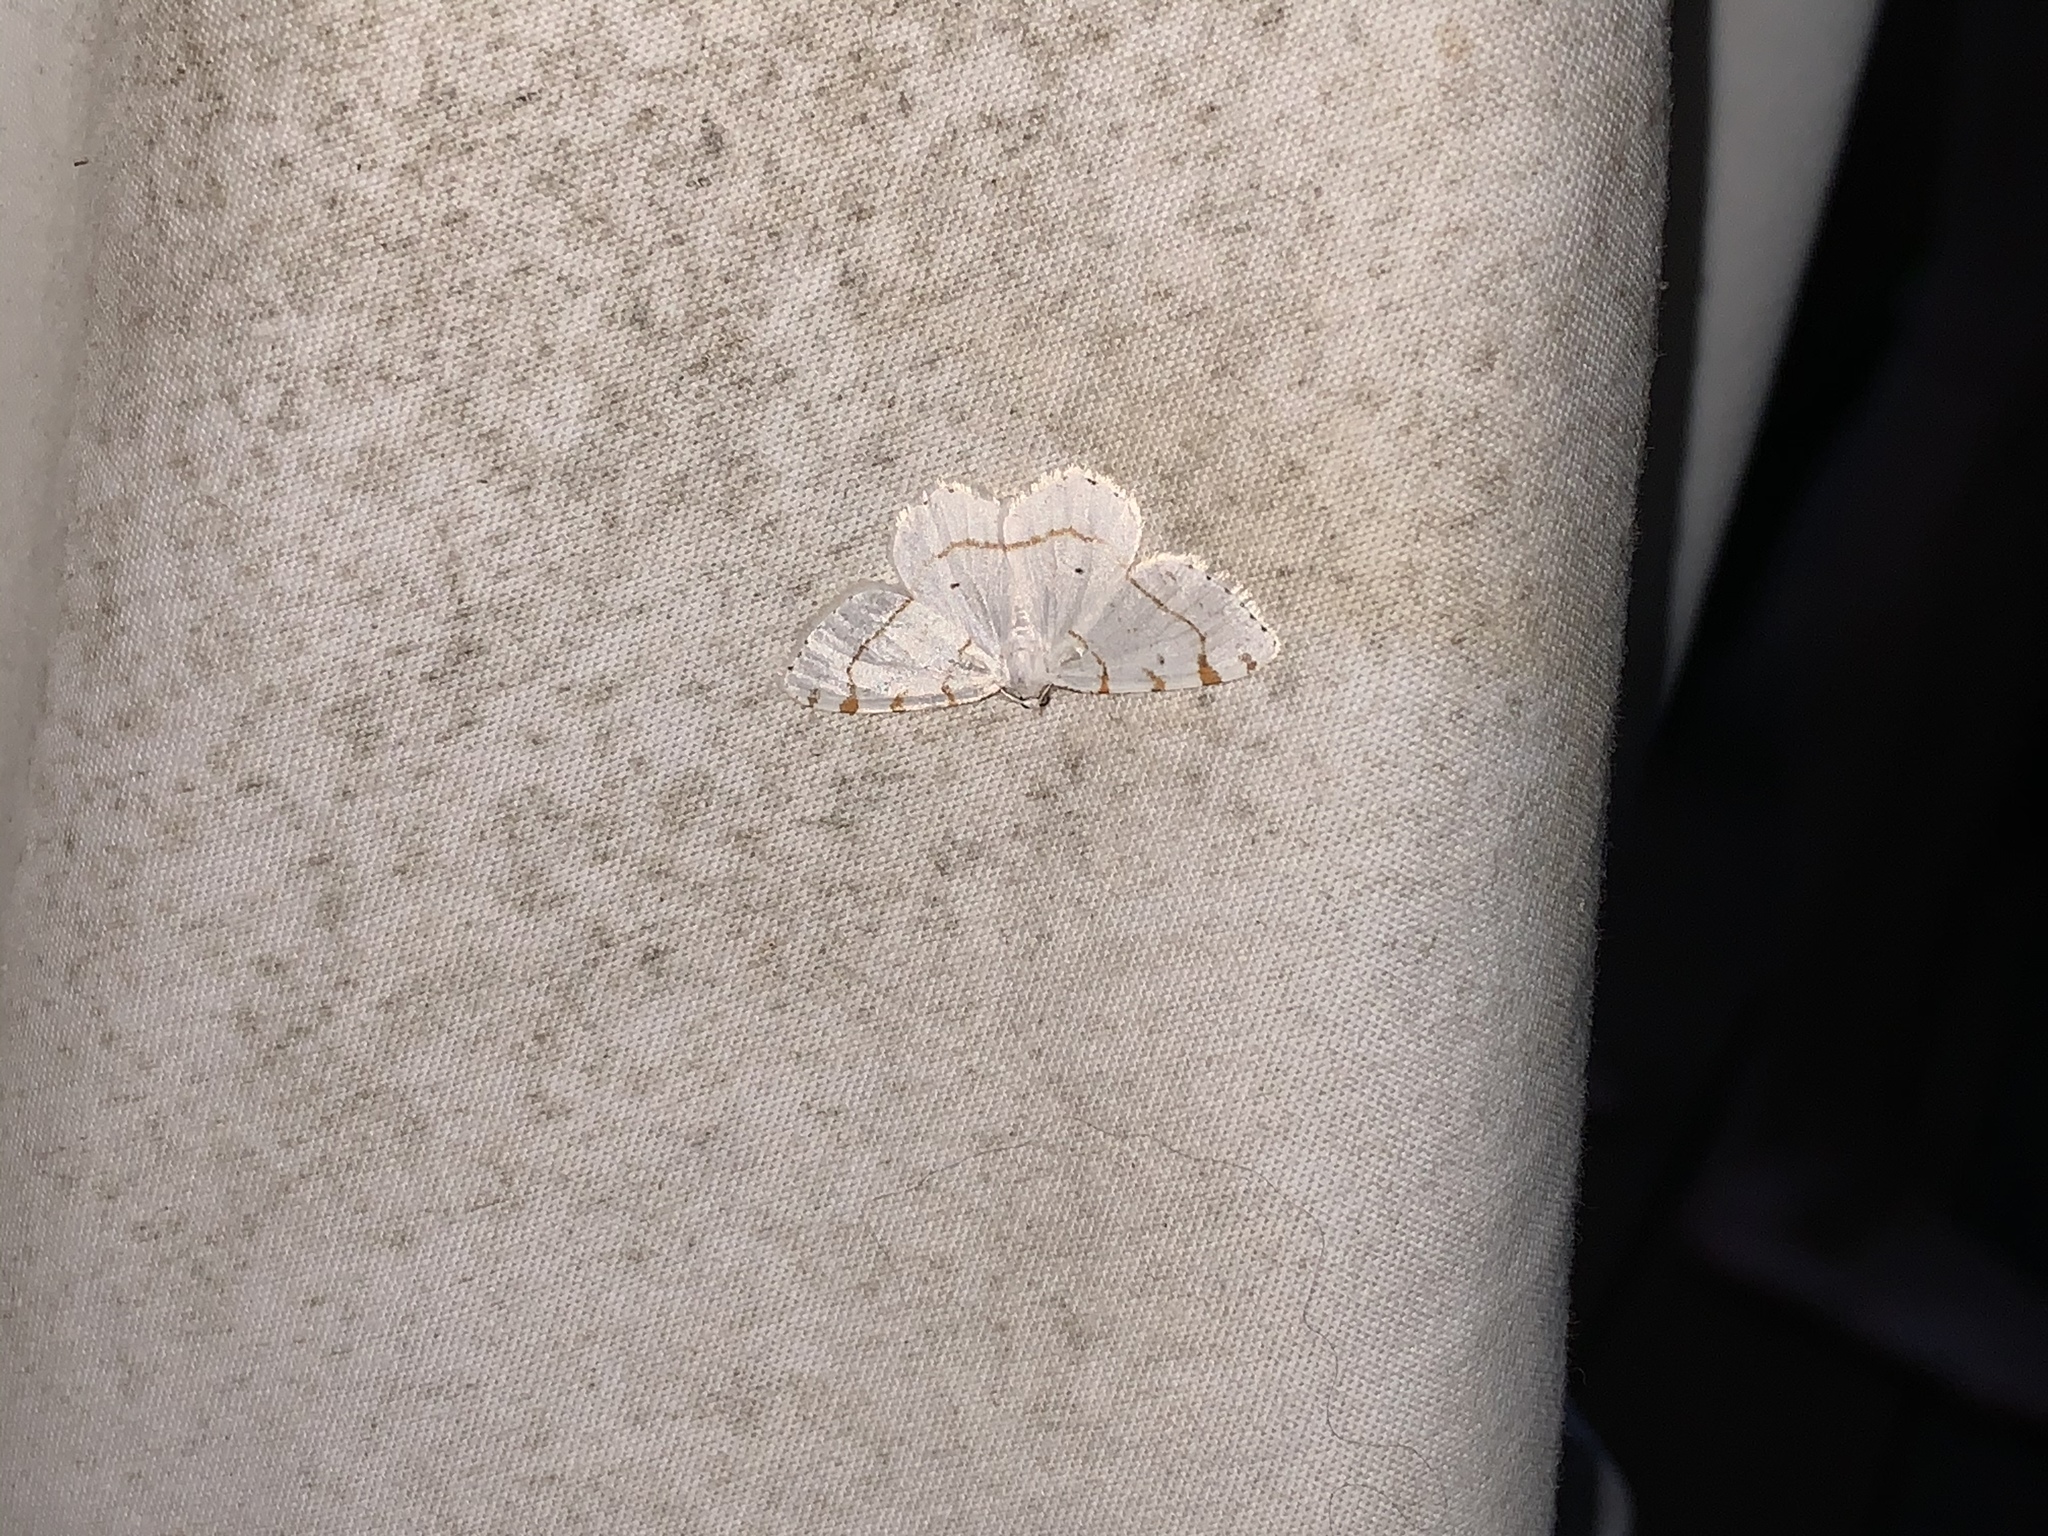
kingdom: Animalia
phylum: Arthropoda
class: Insecta
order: Lepidoptera
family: Geometridae
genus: Macaria
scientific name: Macaria pustularia
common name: Lesser maple spanworm moth
